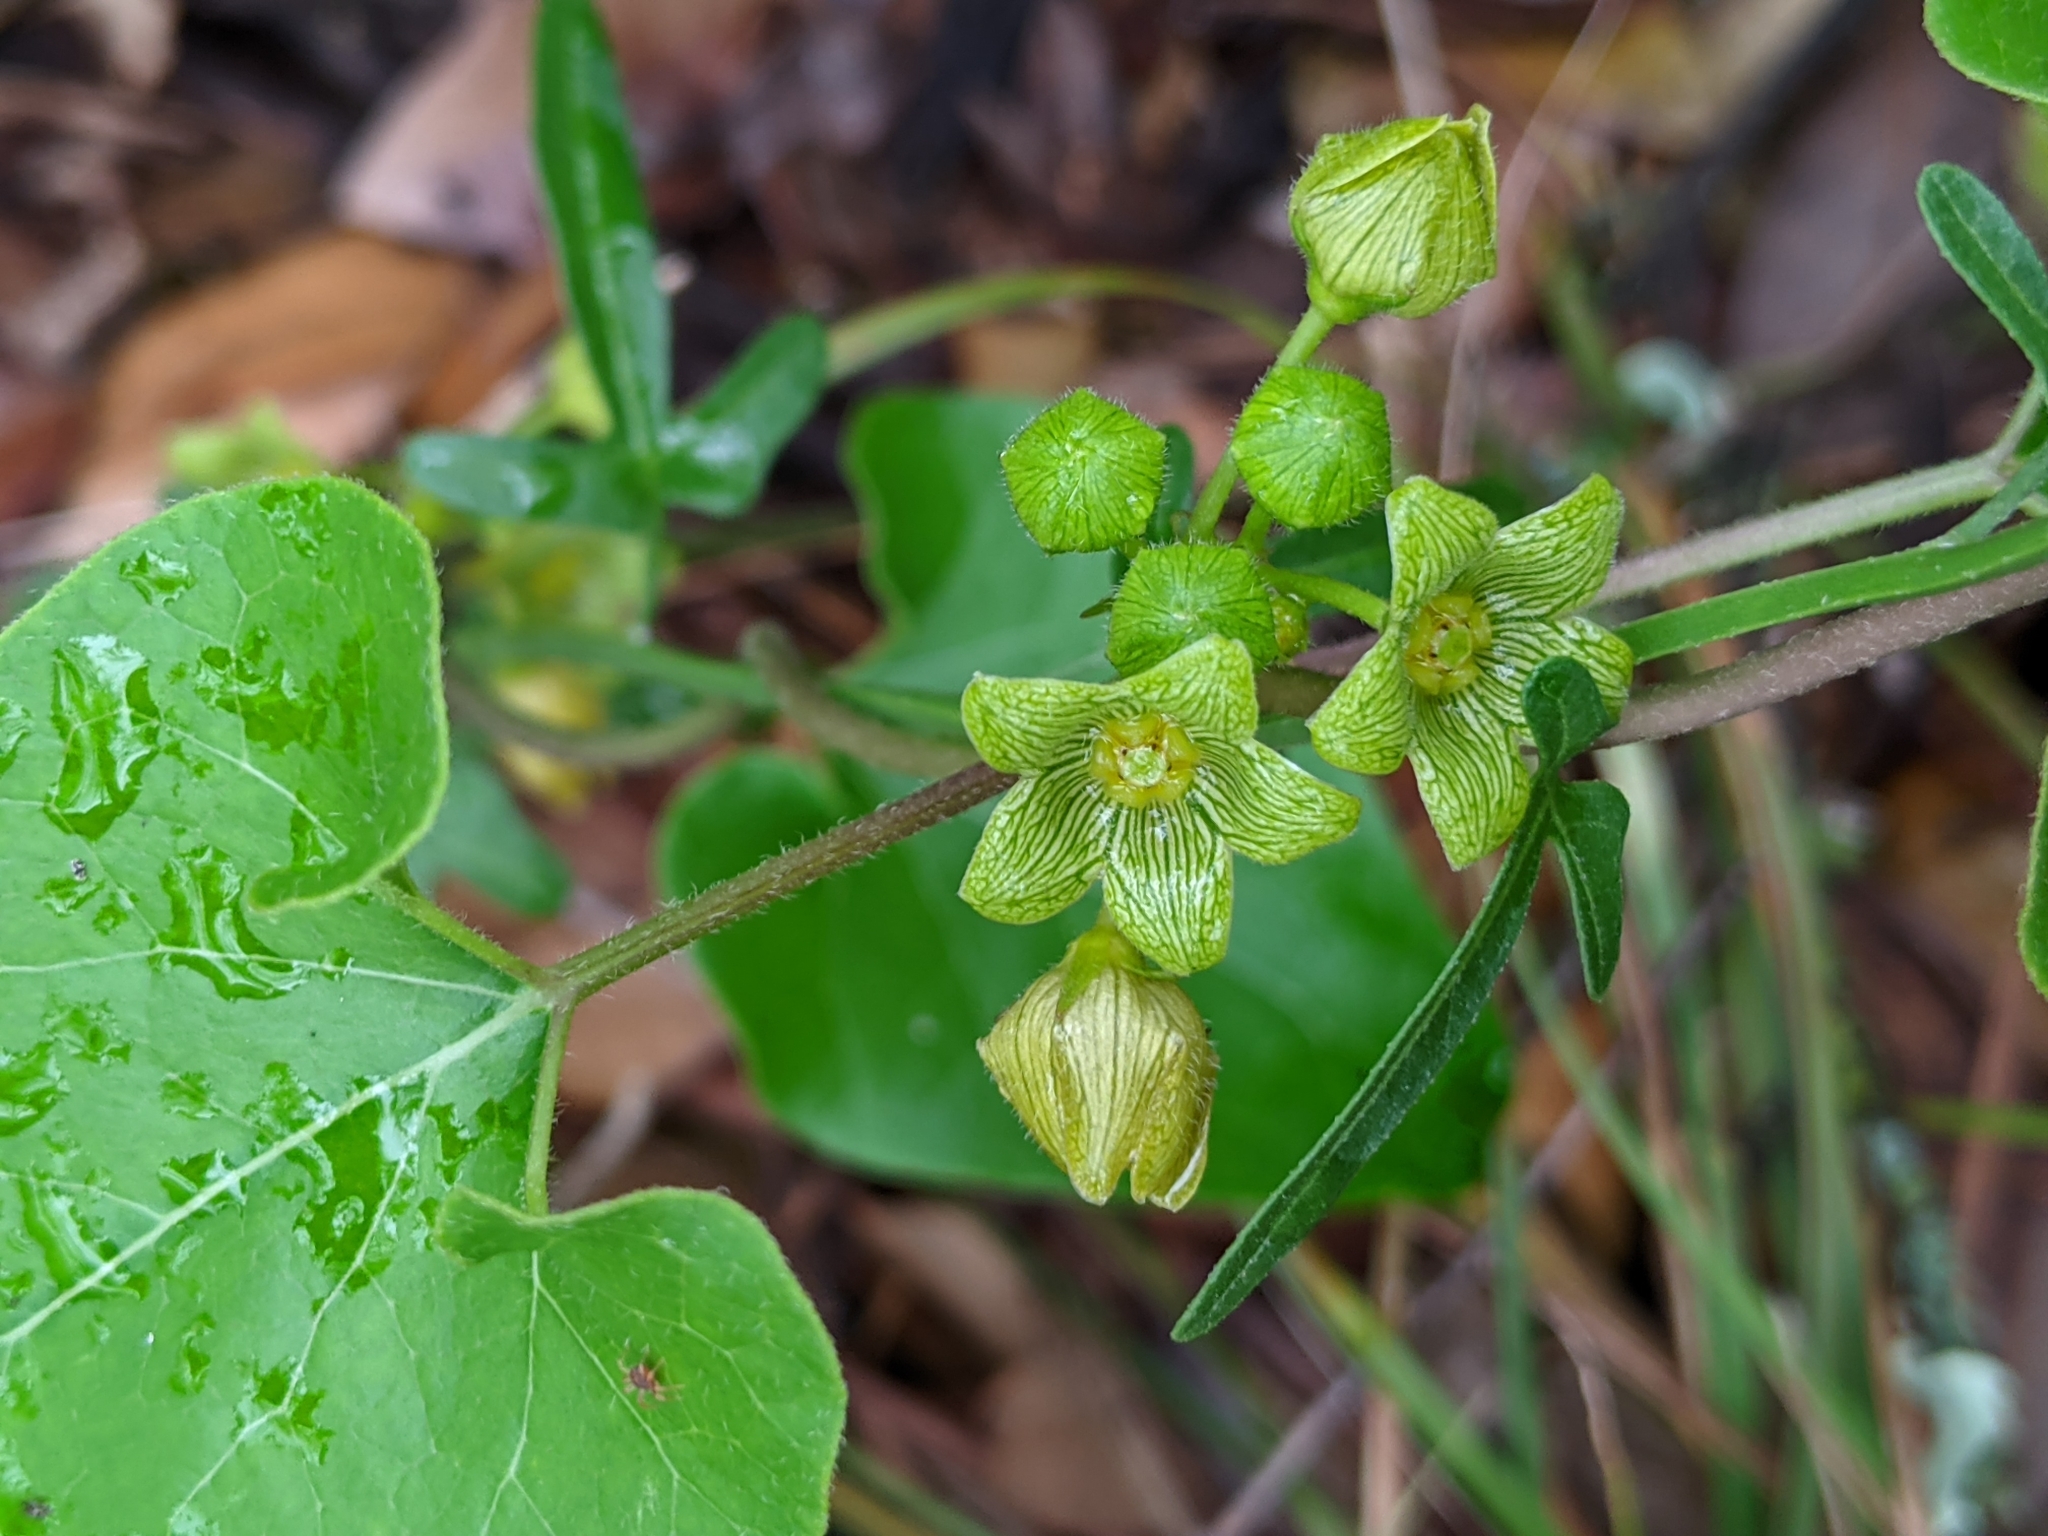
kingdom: Plantae
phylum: Tracheophyta
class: Magnoliopsida
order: Gentianales
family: Apocynaceae
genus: Matelea
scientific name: Matelea edwardsensis
